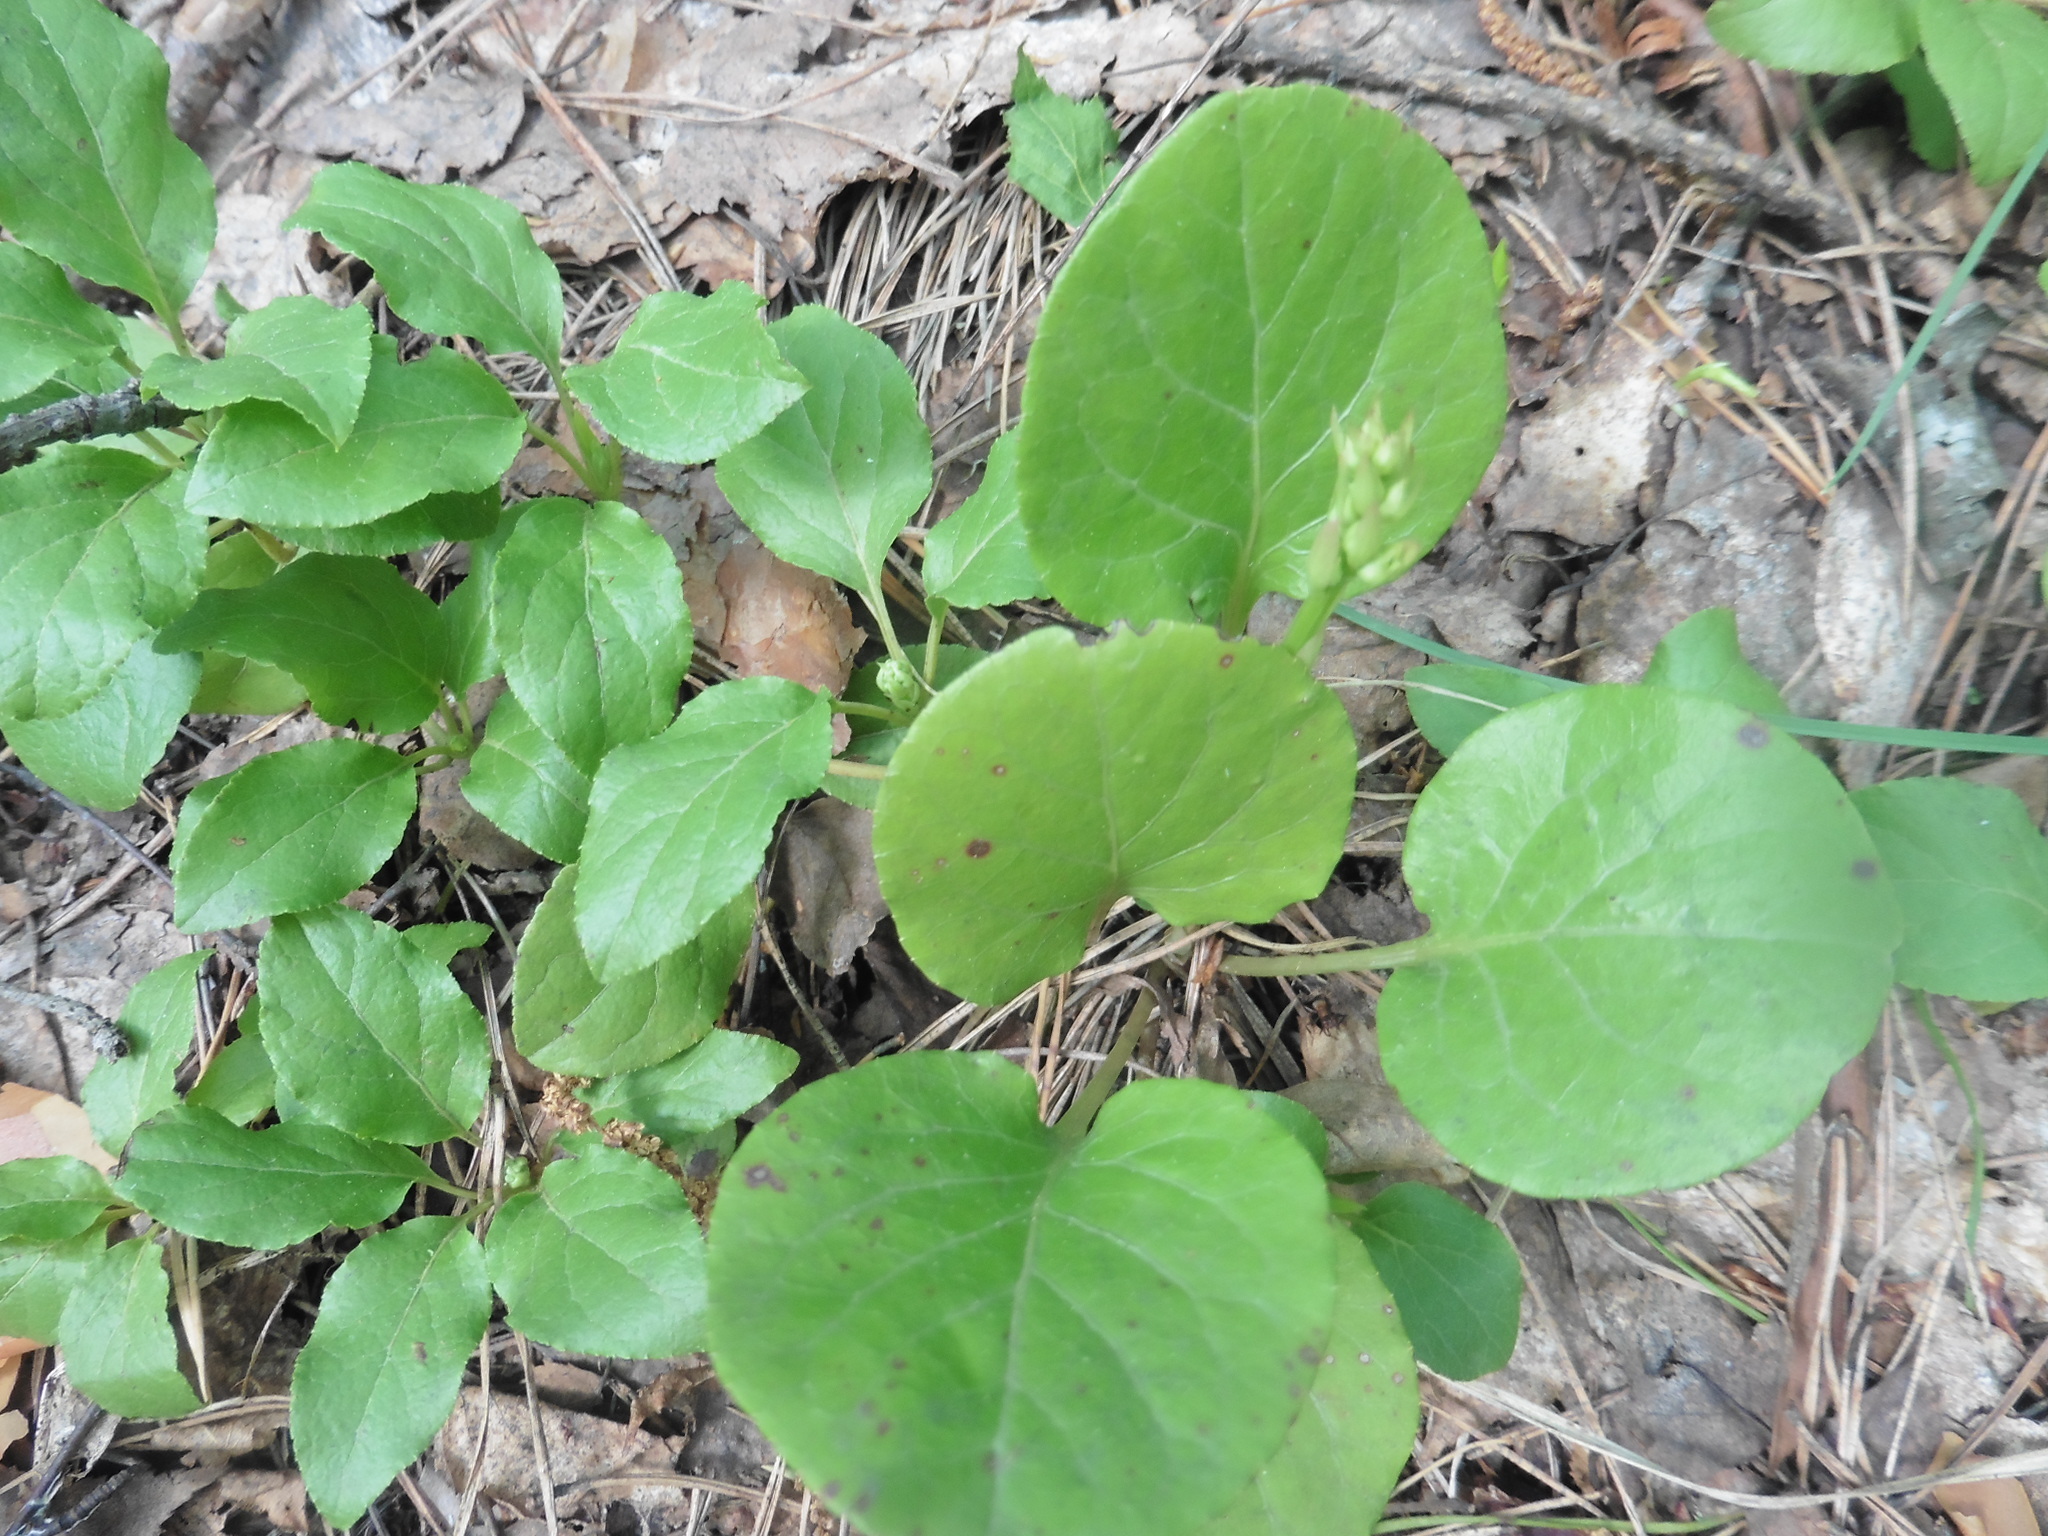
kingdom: Plantae
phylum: Tracheophyta
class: Magnoliopsida
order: Ericales
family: Ericaceae
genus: Pyrola
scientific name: Pyrola rotundifolia
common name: Round-leaved wintergreen
